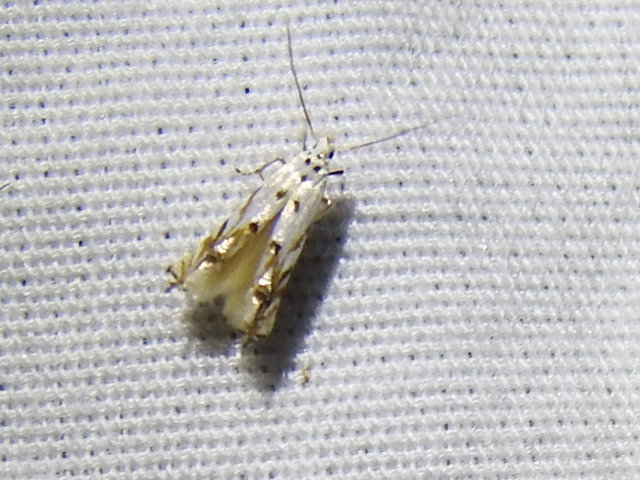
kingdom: Animalia
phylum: Arthropoda
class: Insecta
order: Lepidoptera
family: Momphidae
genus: Mompha
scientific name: Mompha eloisella
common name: Red-streaked mompha moth
